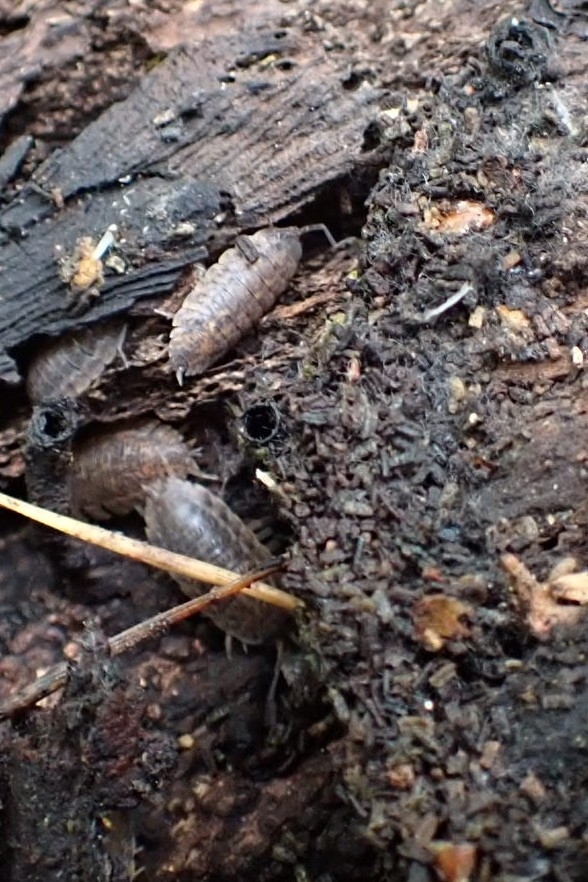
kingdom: Animalia
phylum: Arthropoda
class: Malacostraca
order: Isopoda
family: Trachelipodidae
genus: Trachelipus
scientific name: Trachelipus rathkii
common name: Isopod
